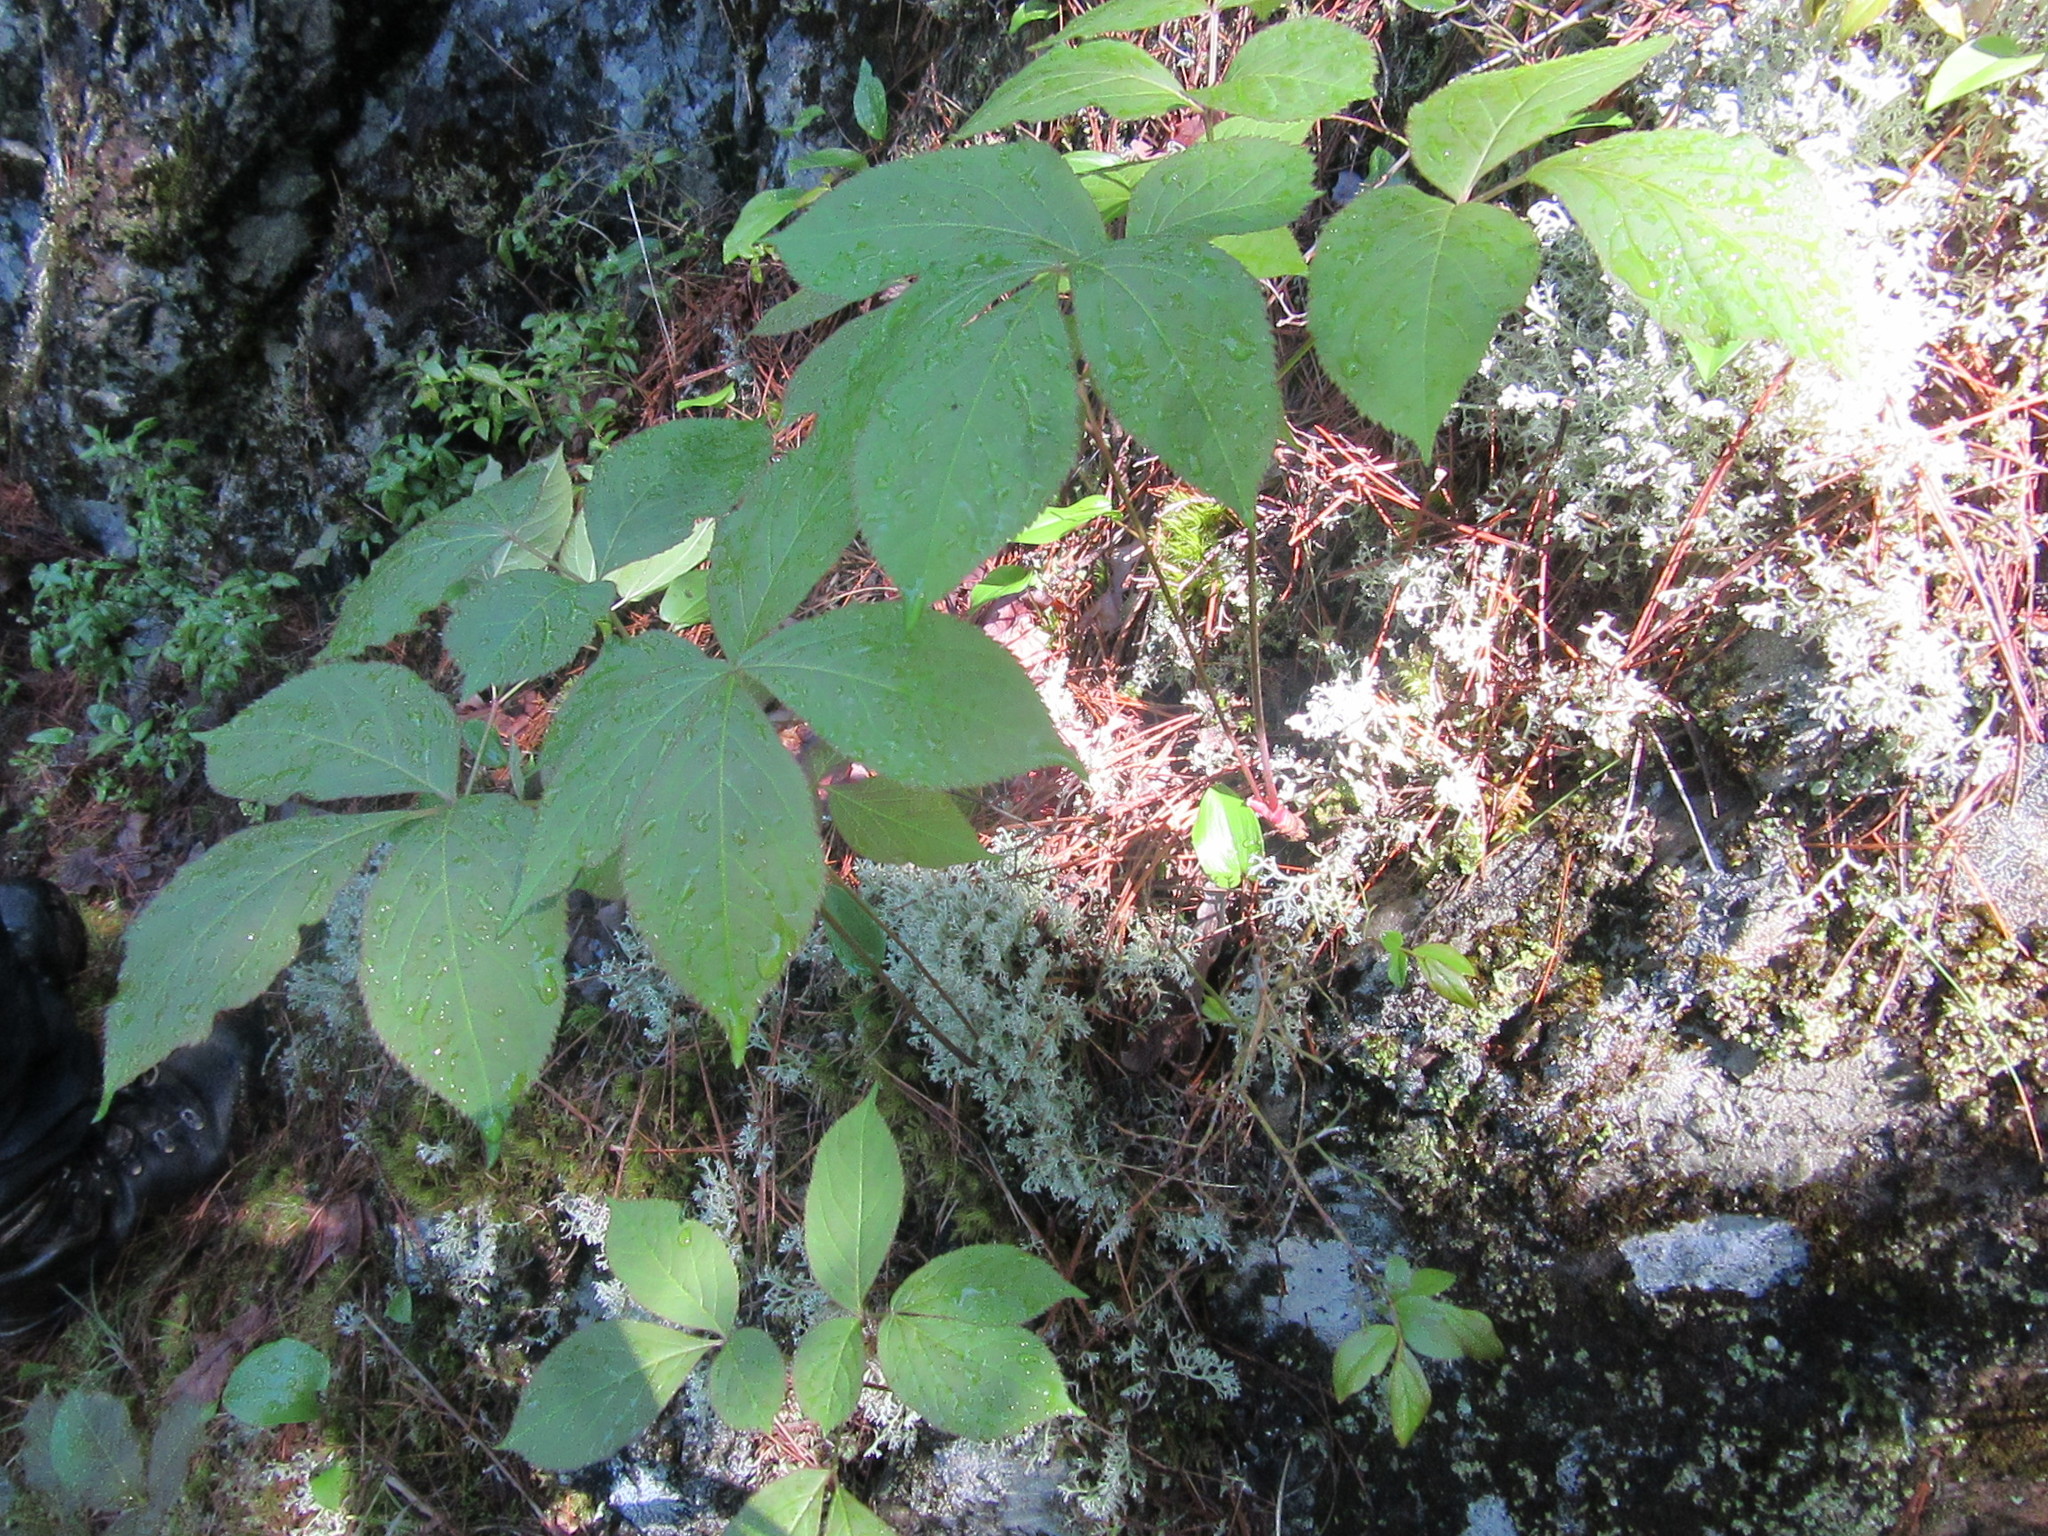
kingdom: Plantae
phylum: Tracheophyta
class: Magnoliopsida
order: Apiales
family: Araliaceae
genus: Aralia
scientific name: Aralia nudicaulis
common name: Wild sarsaparilla
